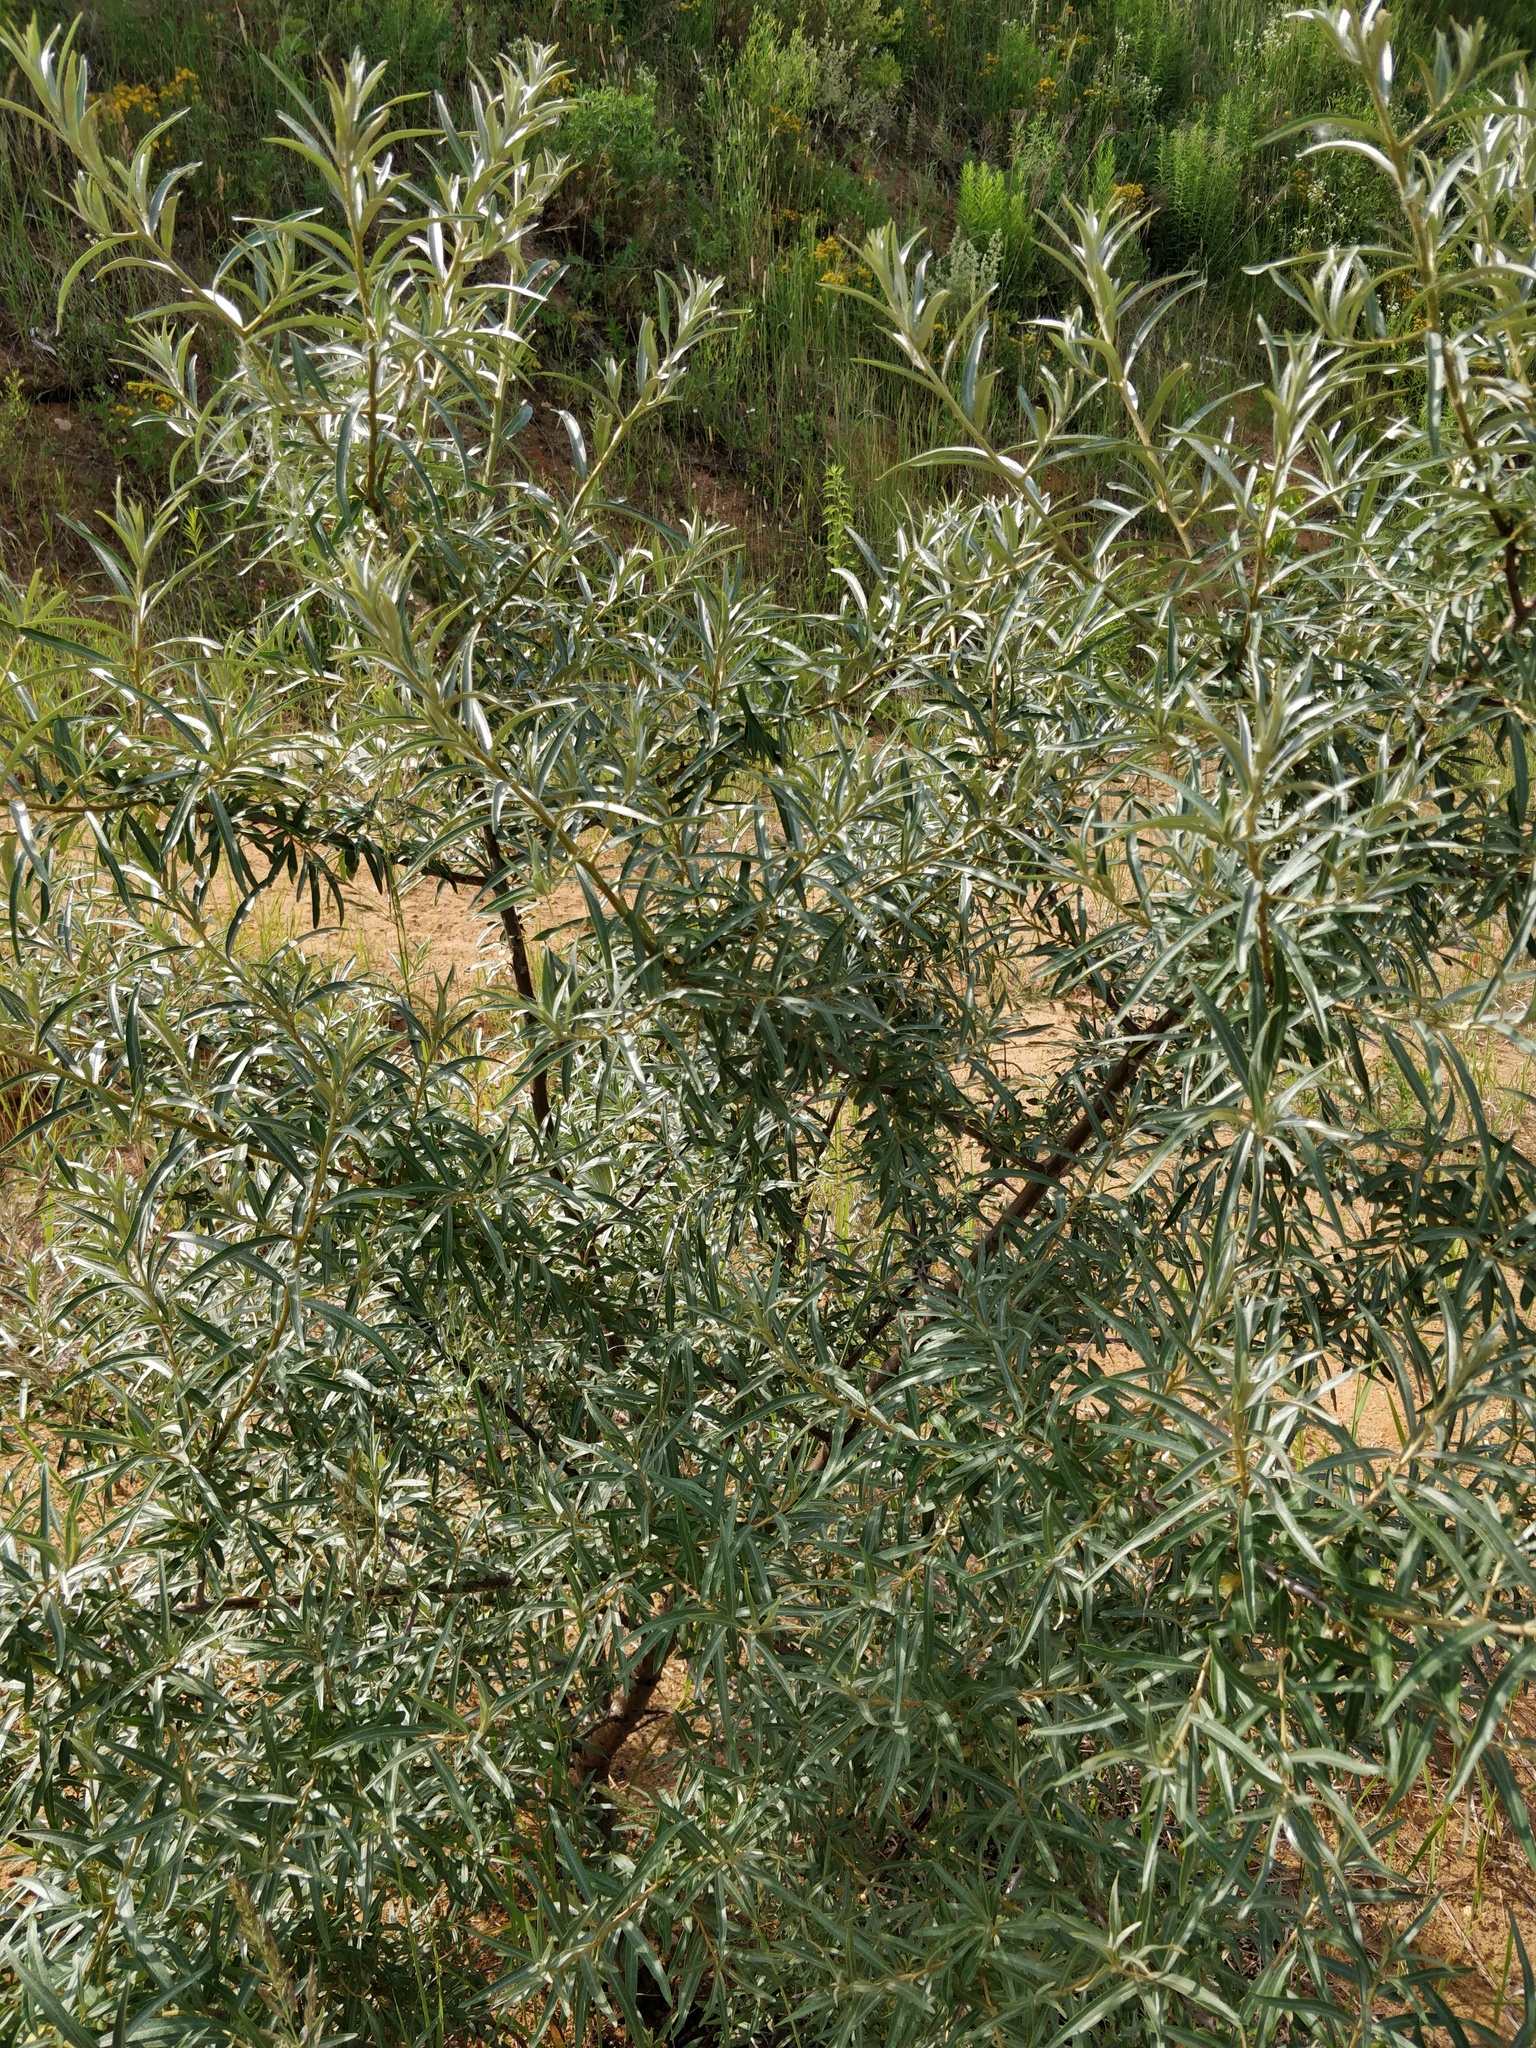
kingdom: Plantae
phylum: Tracheophyta
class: Magnoliopsida
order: Rosales
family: Elaeagnaceae
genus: Hippophae
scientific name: Hippophae rhamnoides
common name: Sea-buckthorn
